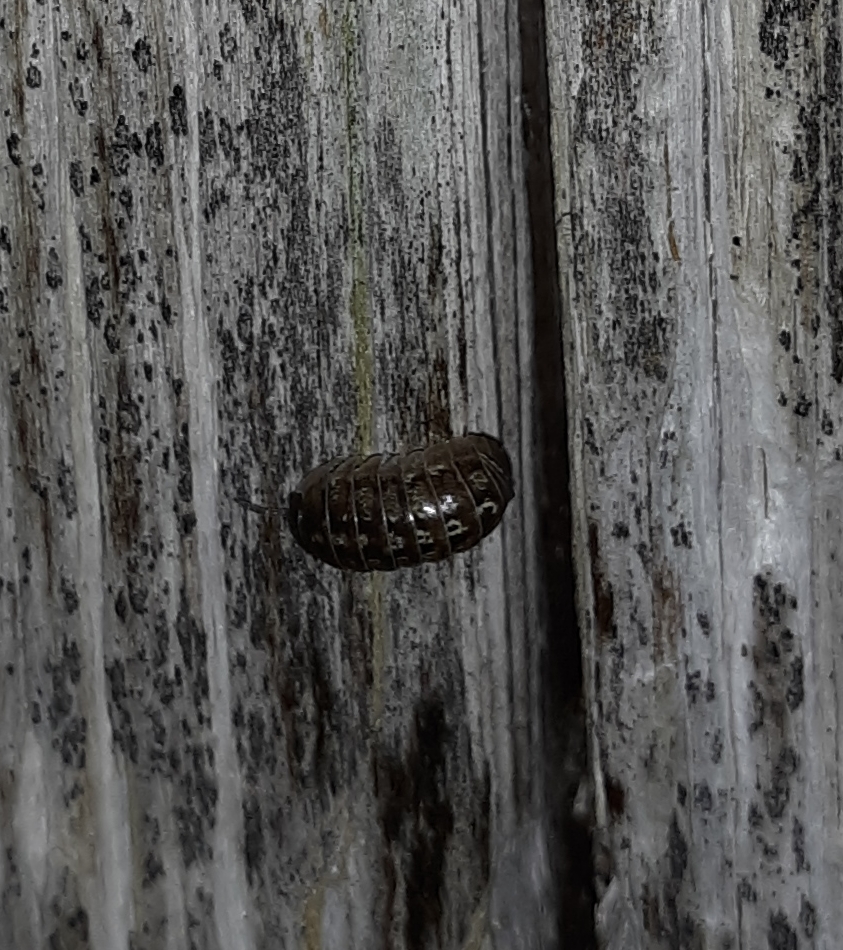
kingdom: Animalia
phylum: Arthropoda
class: Malacostraca
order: Isopoda
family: Armadillidiidae
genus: Armadillidium
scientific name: Armadillidium vulgare
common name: Common pill woodlouse
